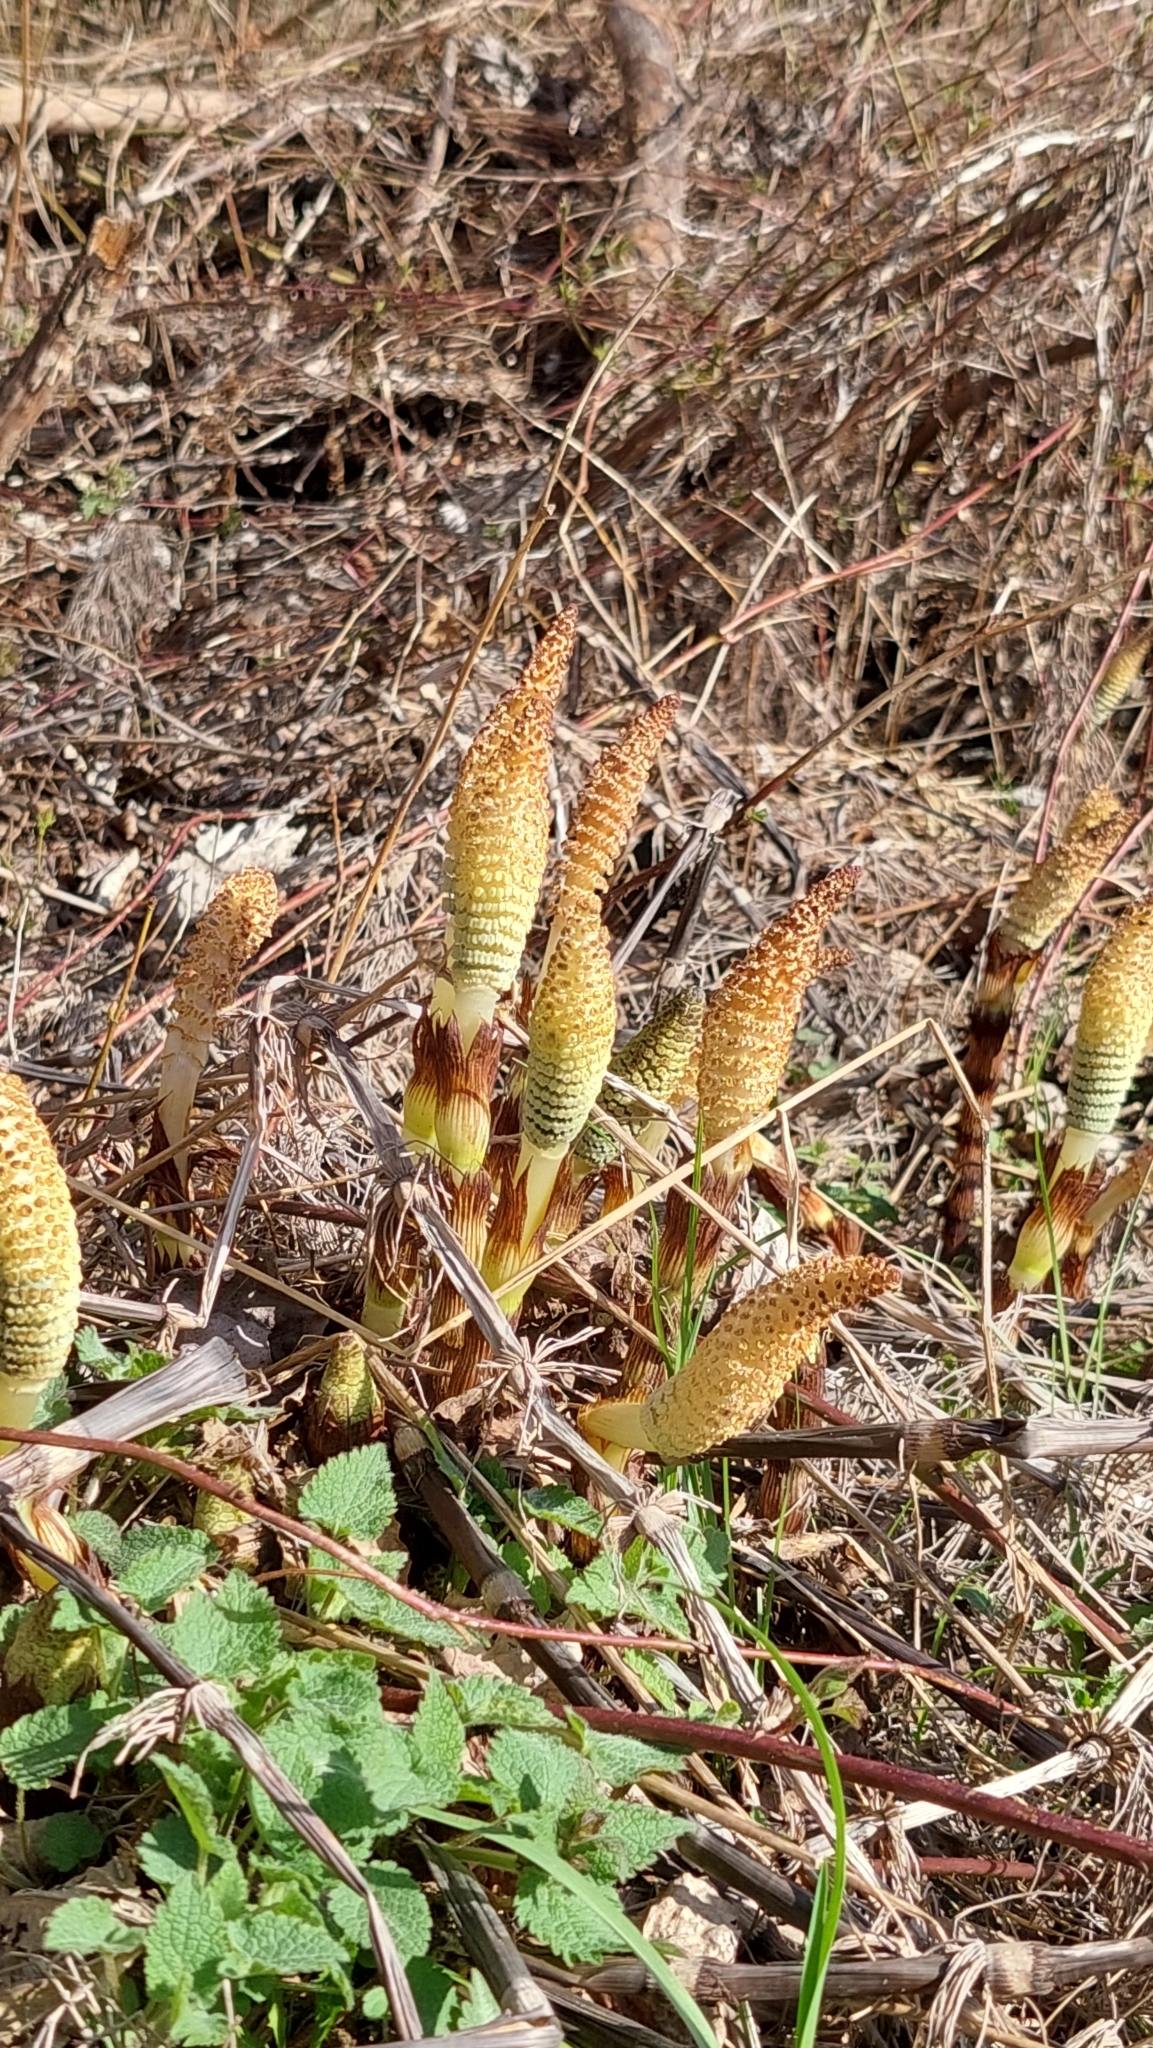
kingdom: Plantae
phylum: Tracheophyta
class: Polypodiopsida
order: Equisetales
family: Equisetaceae
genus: Equisetum
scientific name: Equisetum telmateia
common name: Great horsetail
